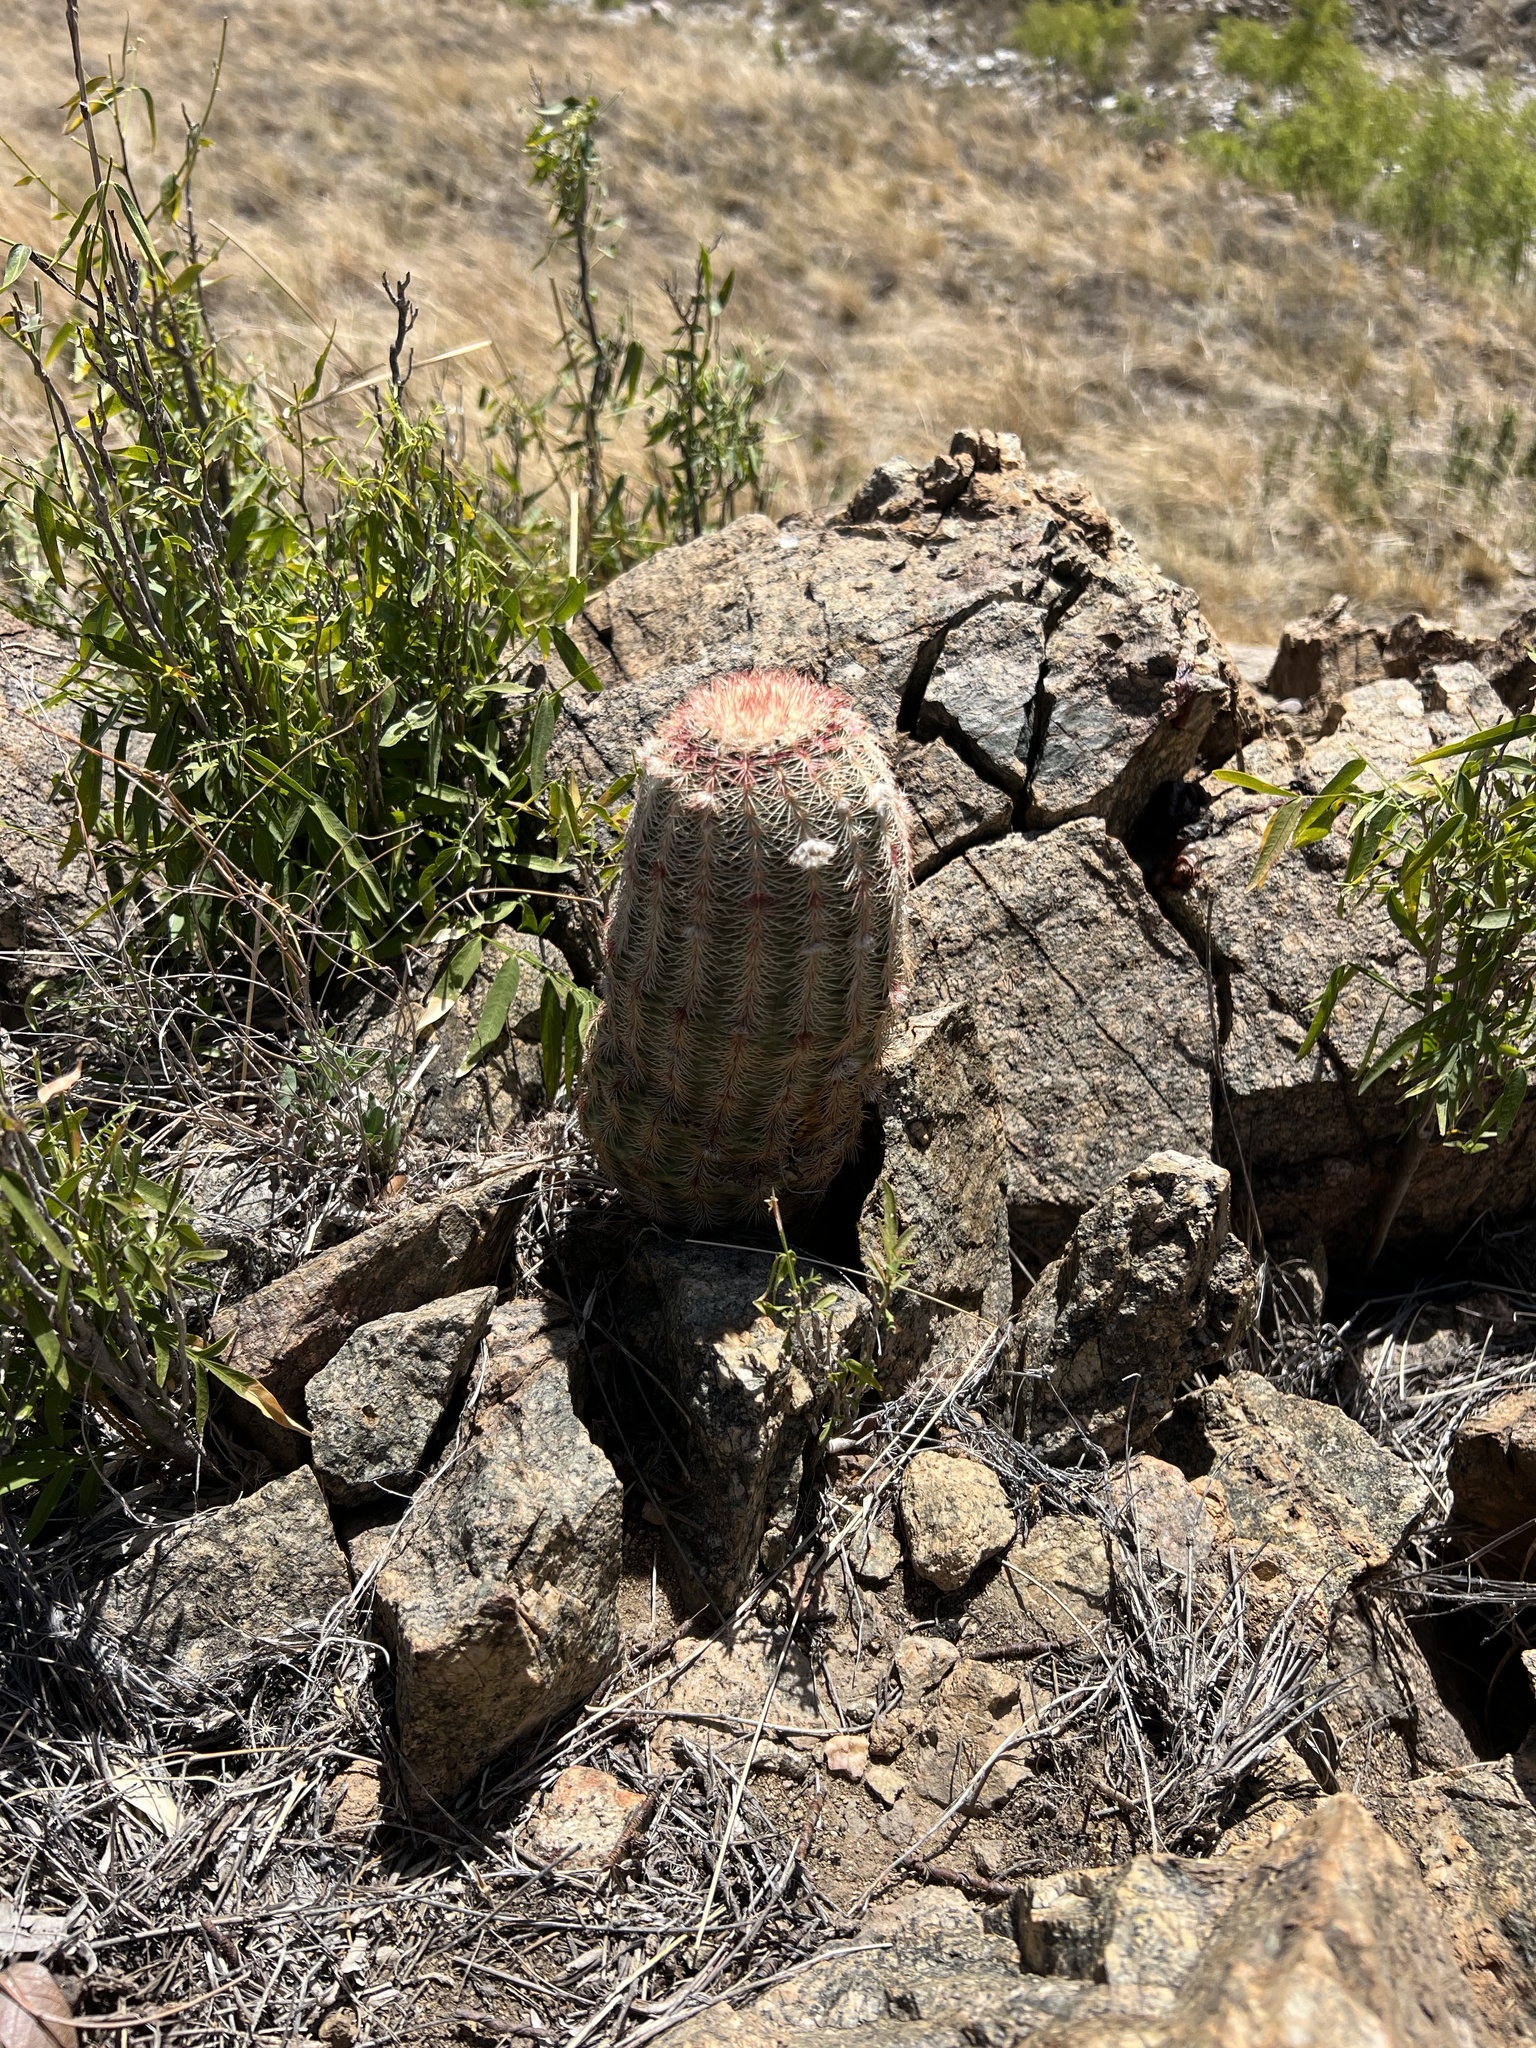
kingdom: Plantae
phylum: Tracheophyta
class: Magnoliopsida
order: Caryophyllales
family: Cactaceae
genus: Echinocereus
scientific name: Echinocereus rigidissimus
